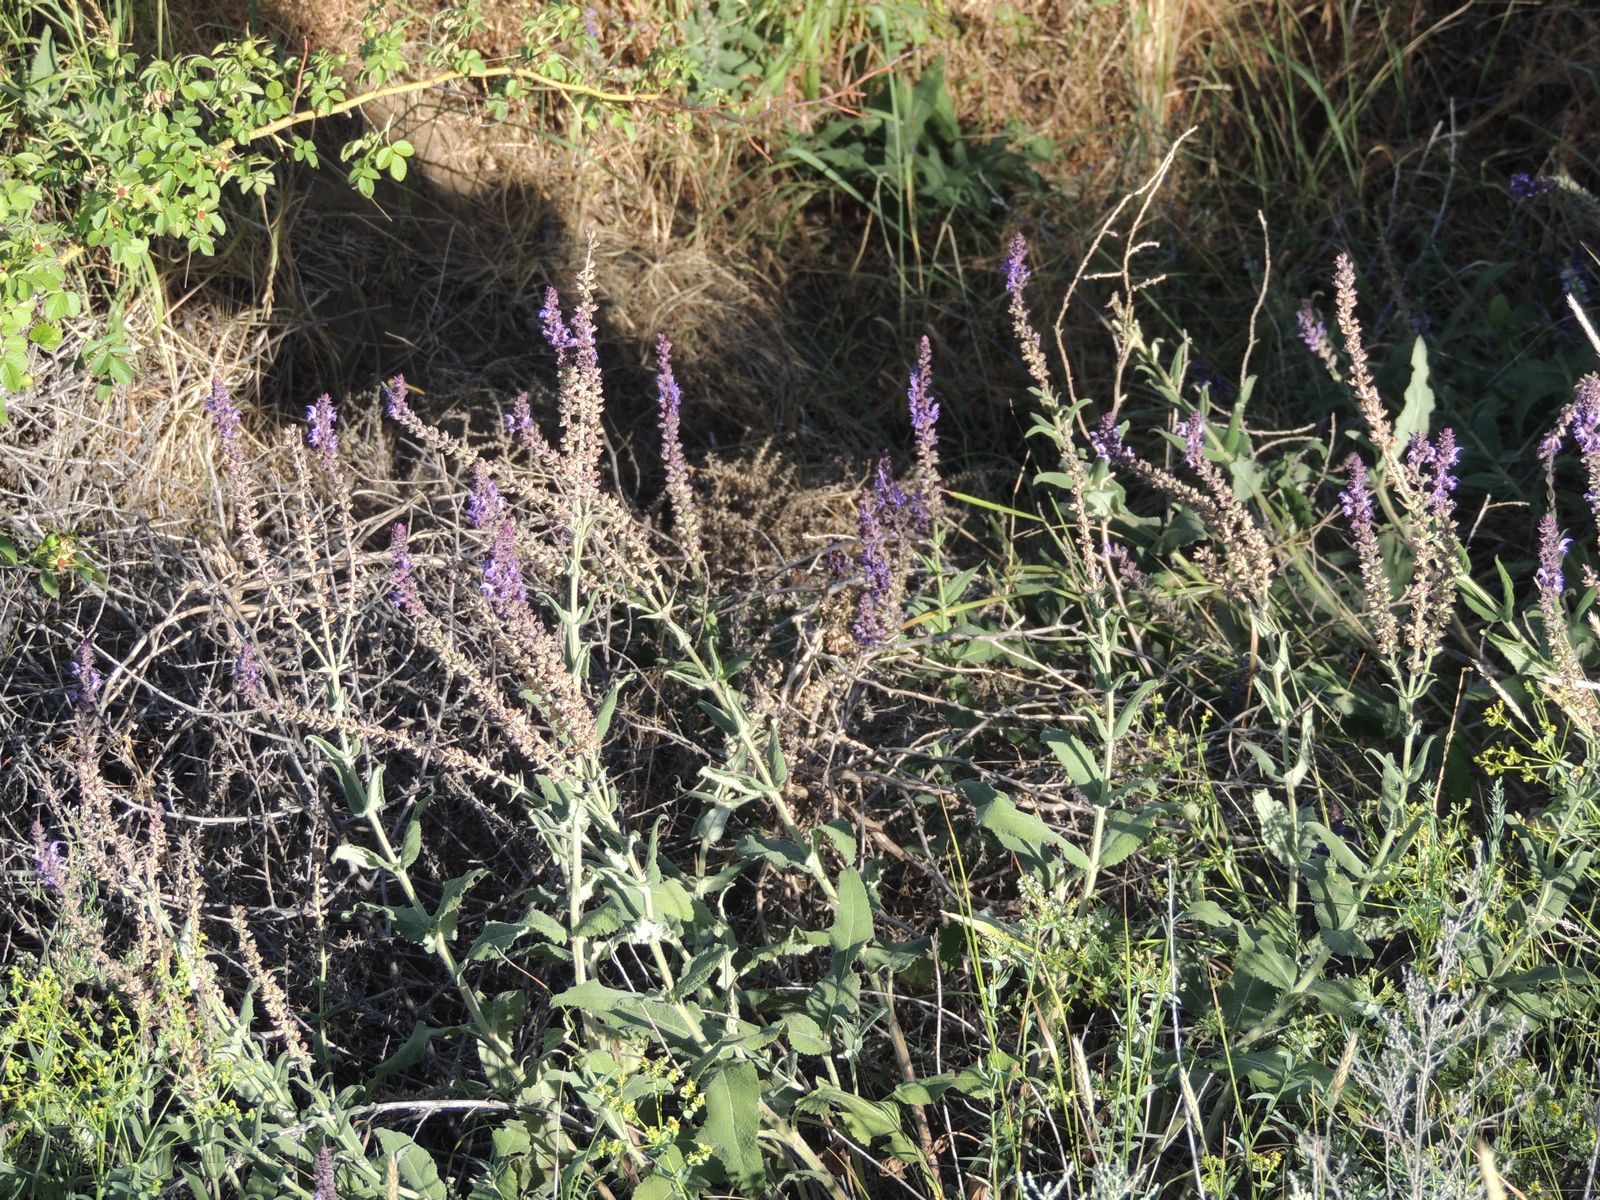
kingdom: Plantae
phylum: Tracheophyta
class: Magnoliopsida
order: Lamiales
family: Lamiaceae
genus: Salvia
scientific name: Salvia nemorosa
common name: Balkan clary
